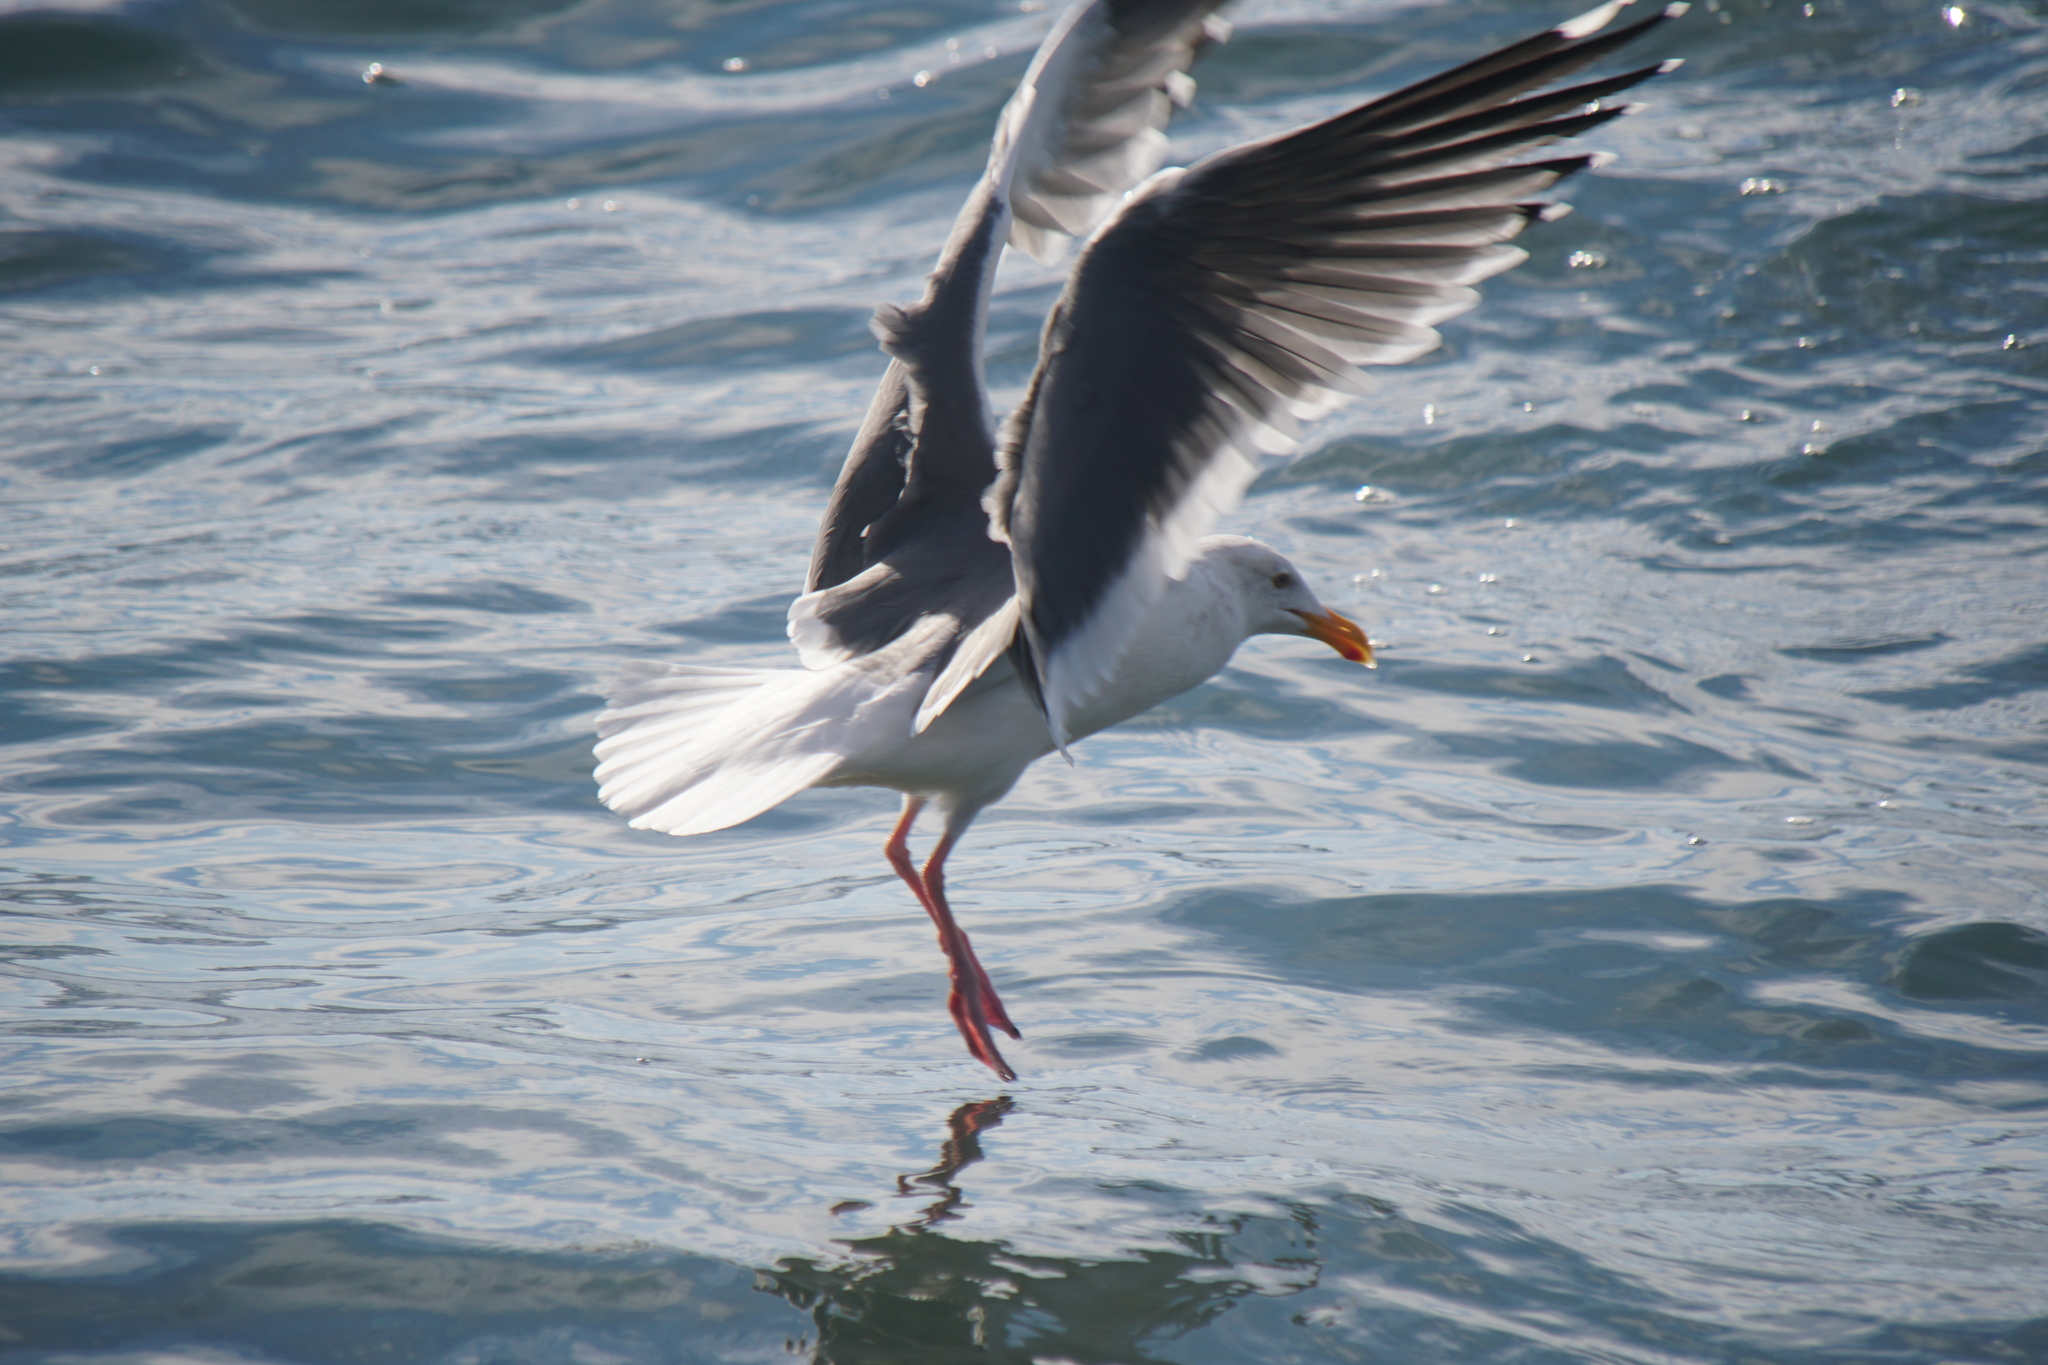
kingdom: Animalia
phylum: Chordata
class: Aves
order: Charadriiformes
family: Laridae
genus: Larus
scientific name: Larus occidentalis
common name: Western gull
